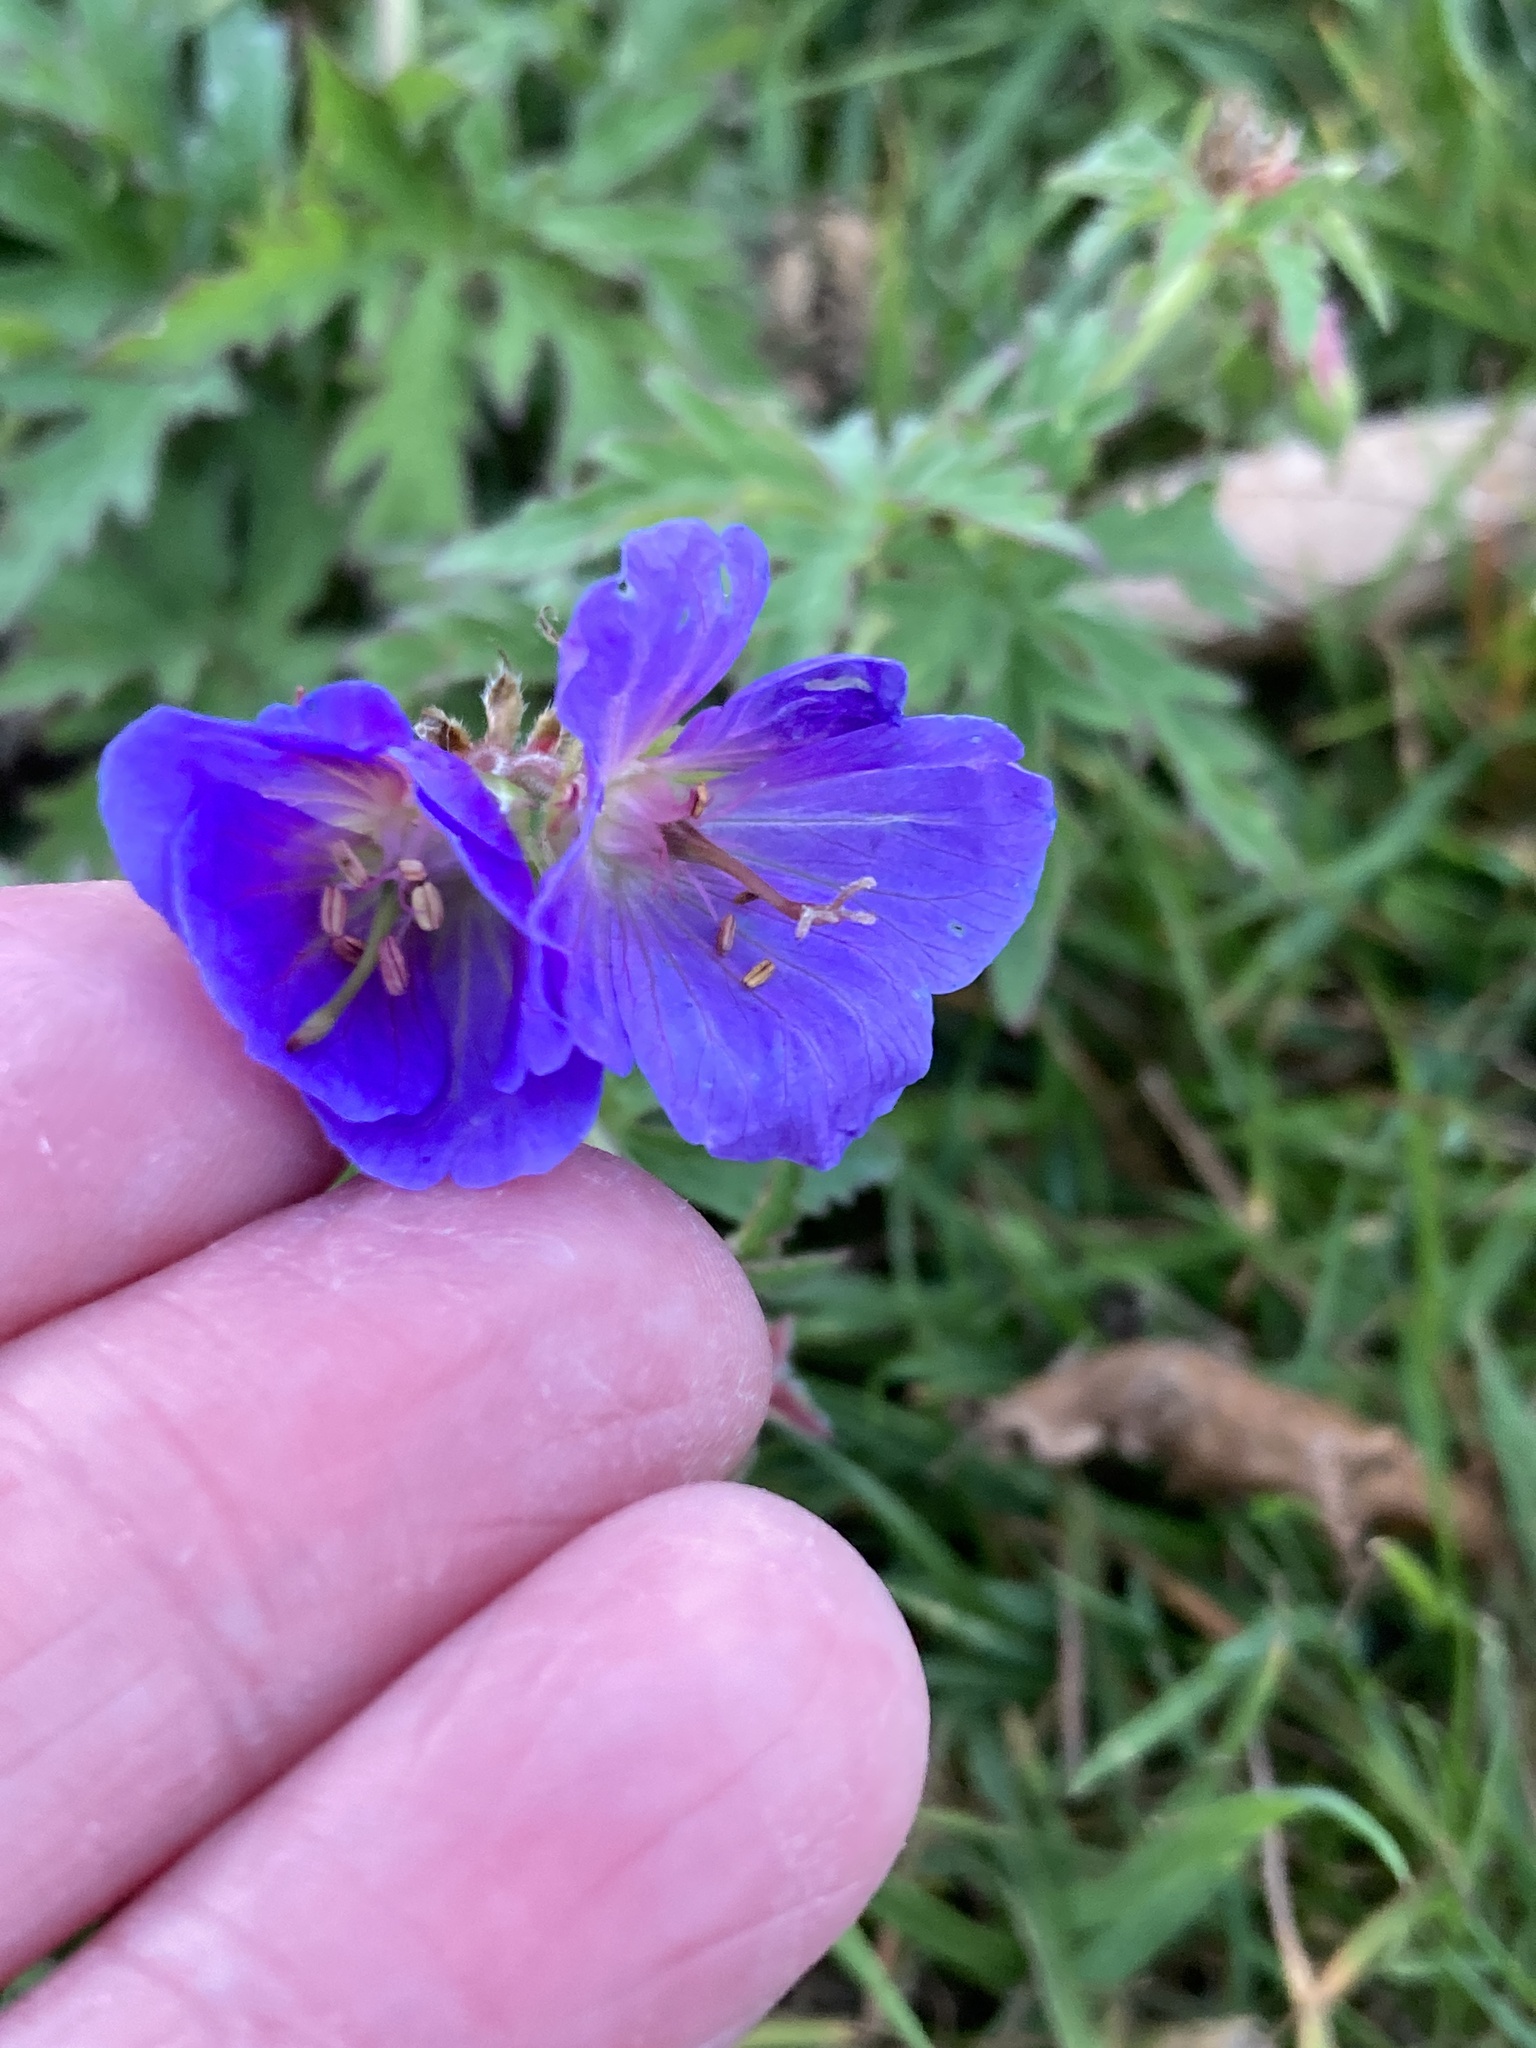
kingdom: Plantae
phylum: Tracheophyta
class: Magnoliopsida
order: Geraniales
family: Geraniaceae
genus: Geranium
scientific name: Geranium pratense
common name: Meadow crane's-bill
